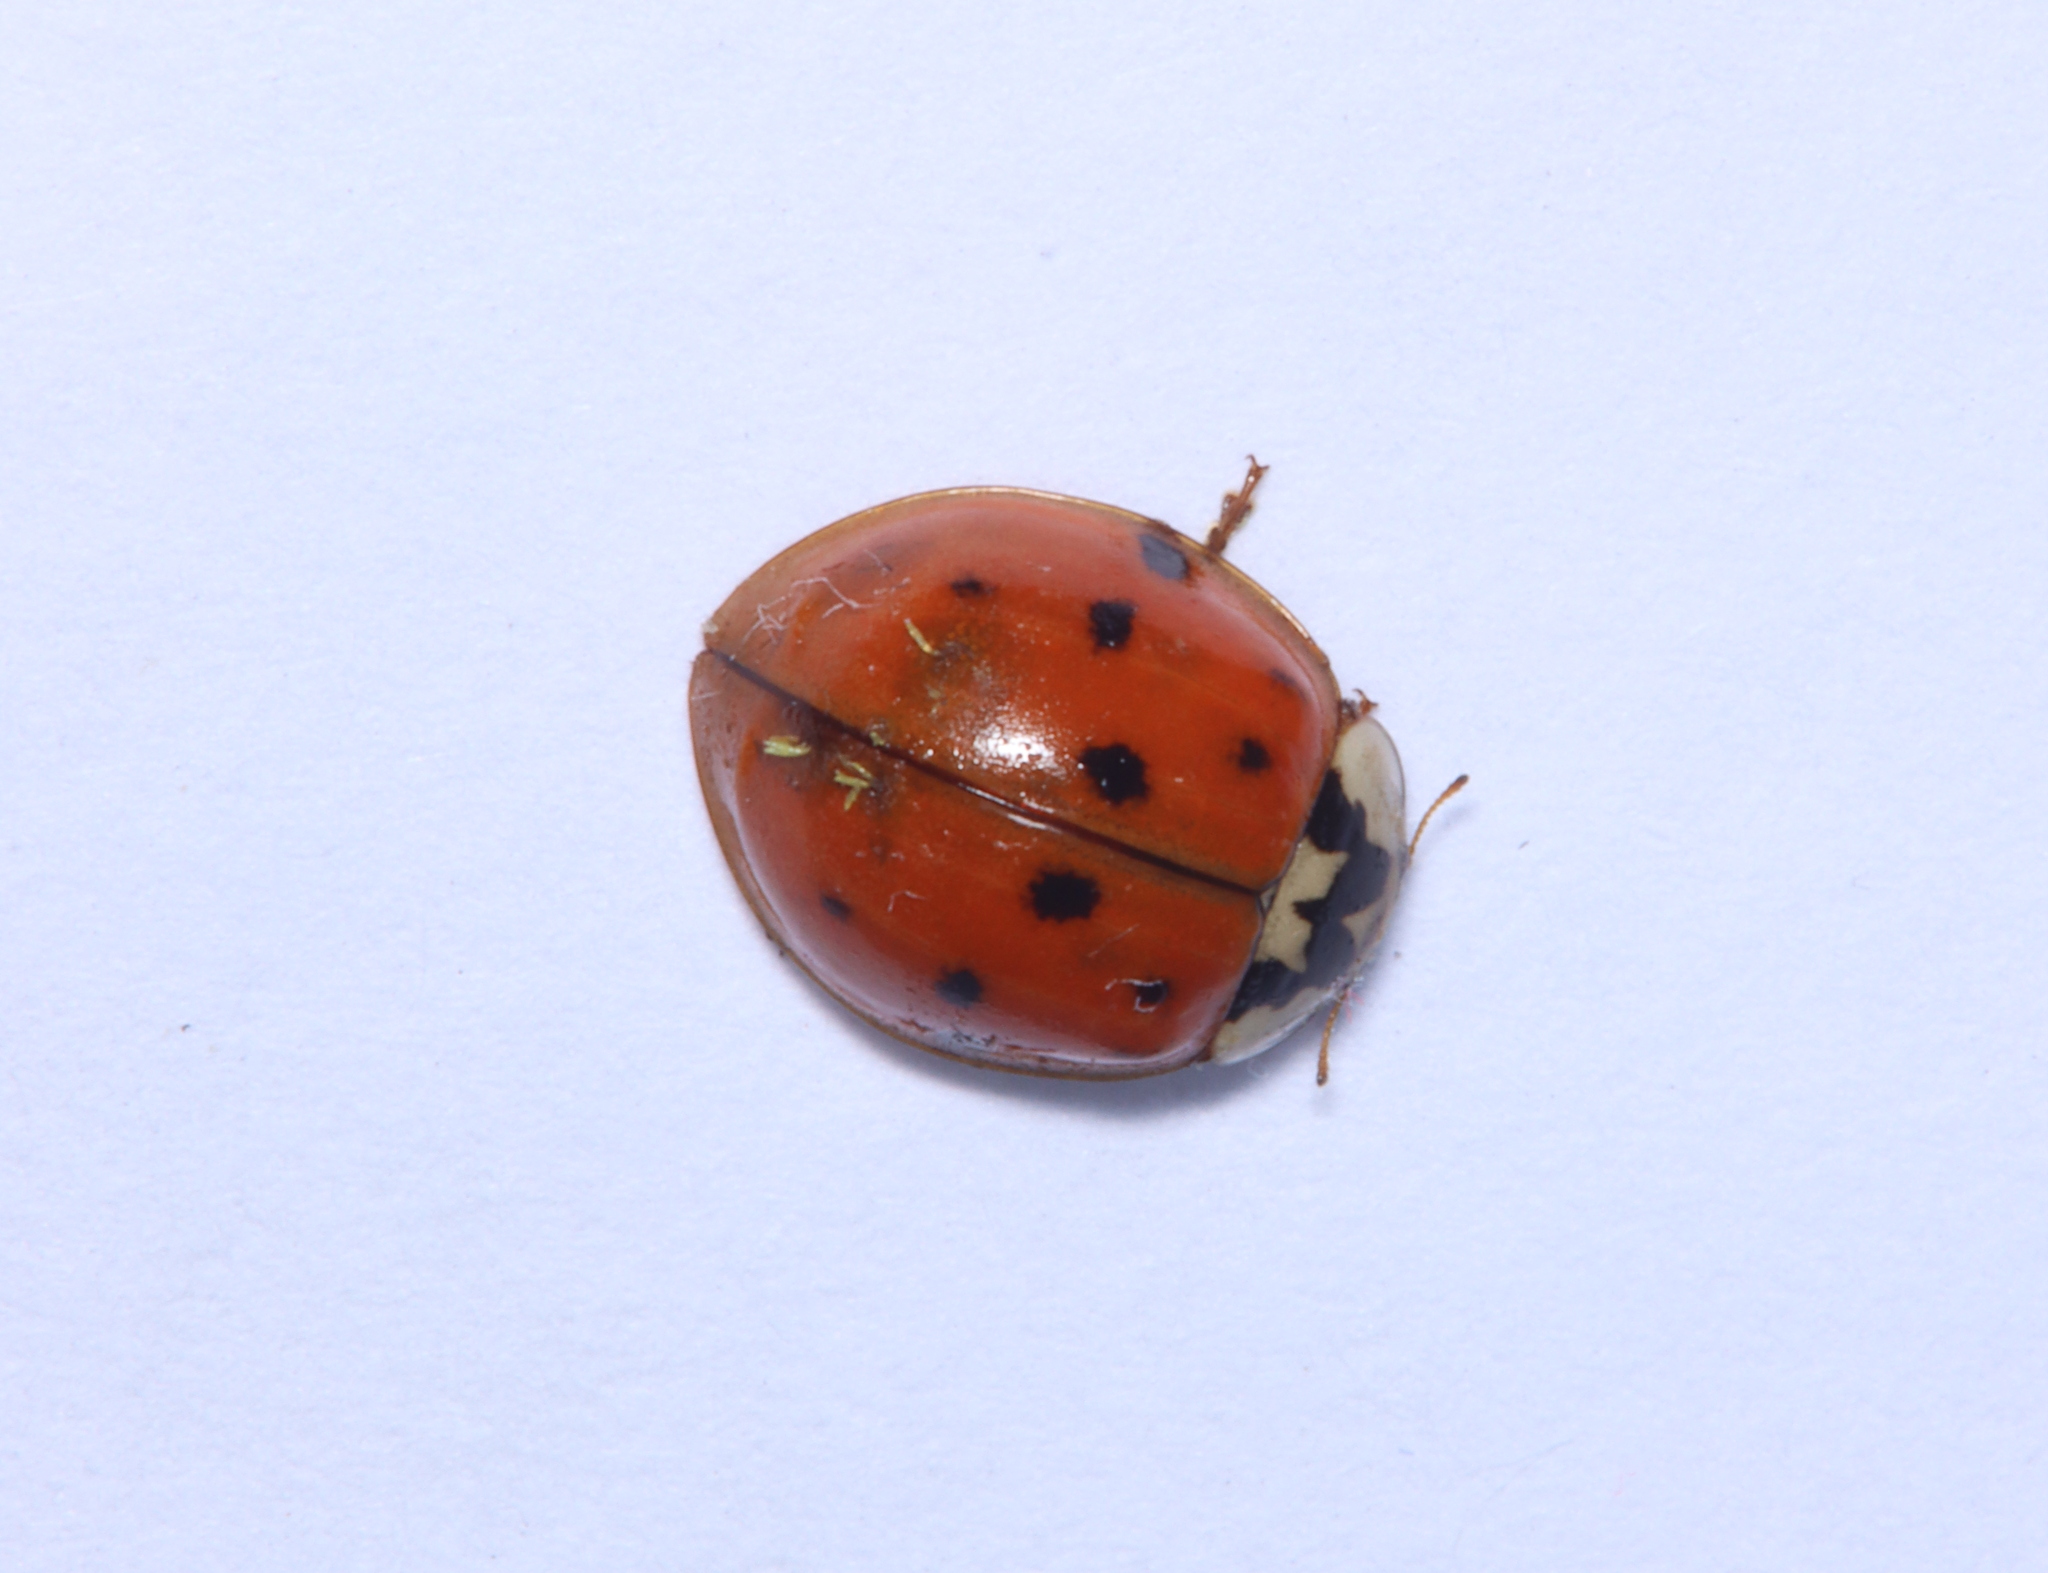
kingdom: Animalia
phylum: Arthropoda
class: Insecta
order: Coleoptera
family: Coccinellidae
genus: Harmonia
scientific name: Harmonia axyridis
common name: Harlequin ladybird
